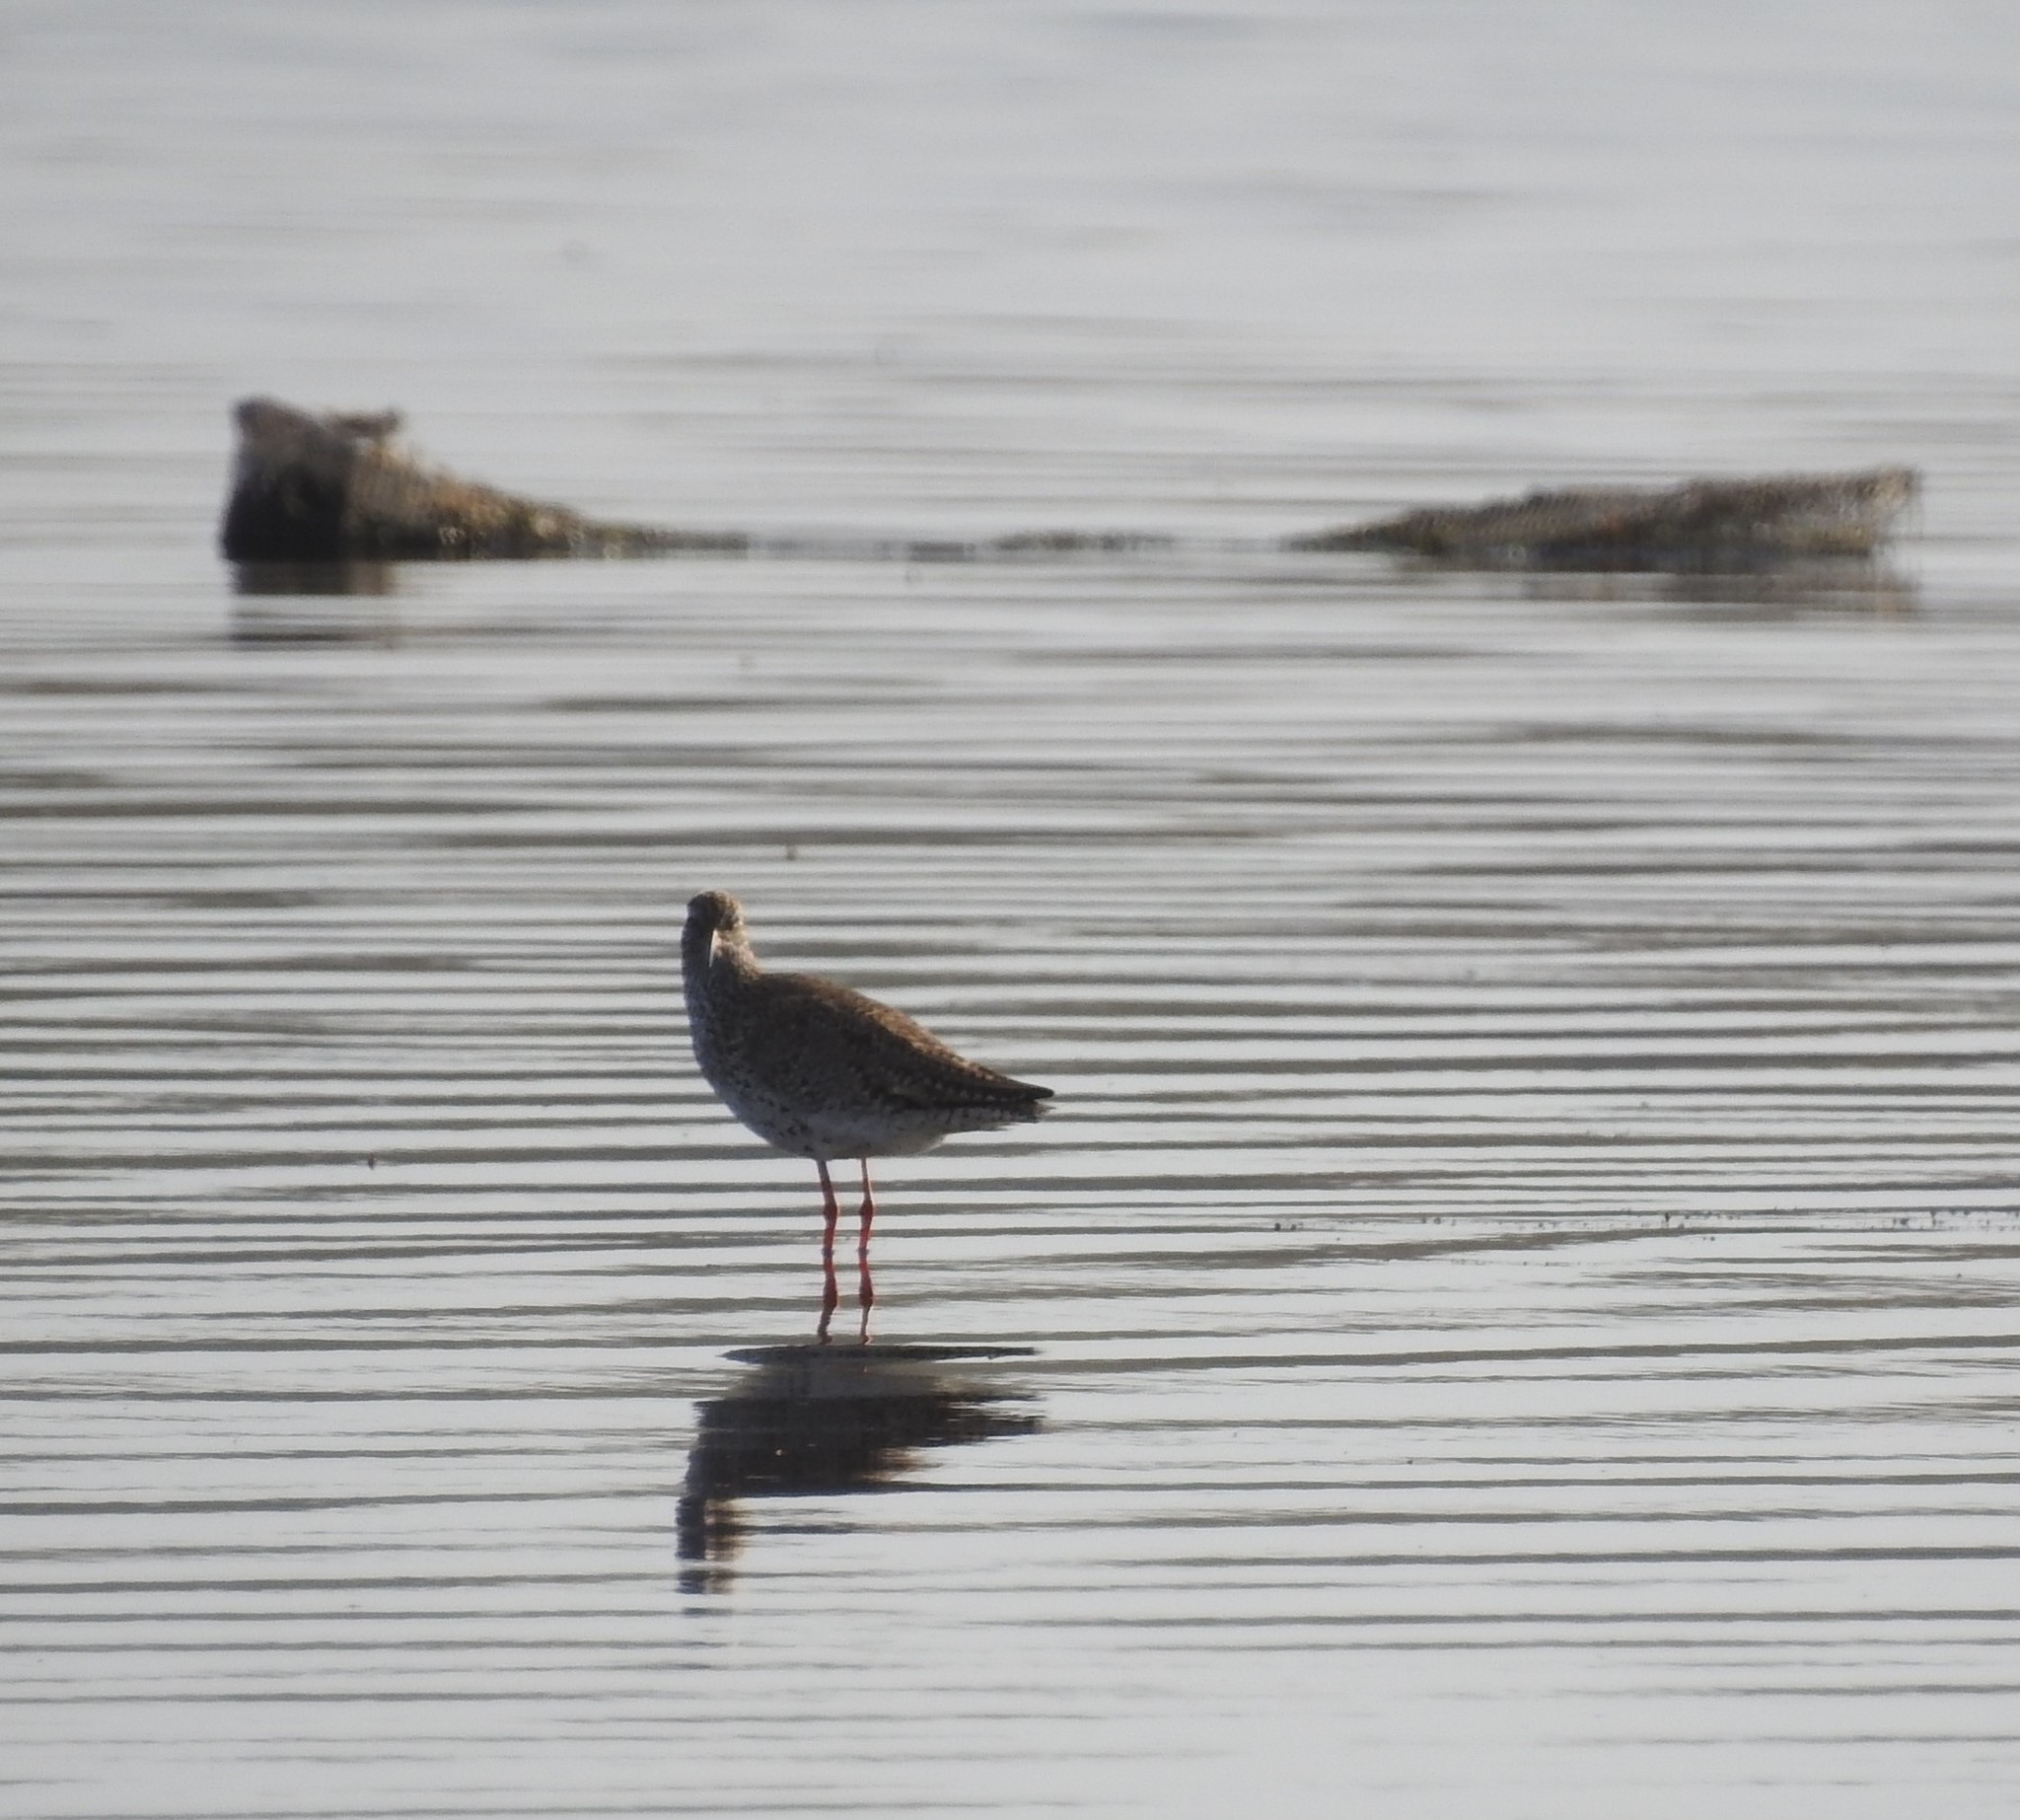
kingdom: Animalia
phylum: Chordata
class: Aves
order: Charadriiformes
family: Scolopacidae
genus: Tringa
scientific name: Tringa totanus
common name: Common redshank
